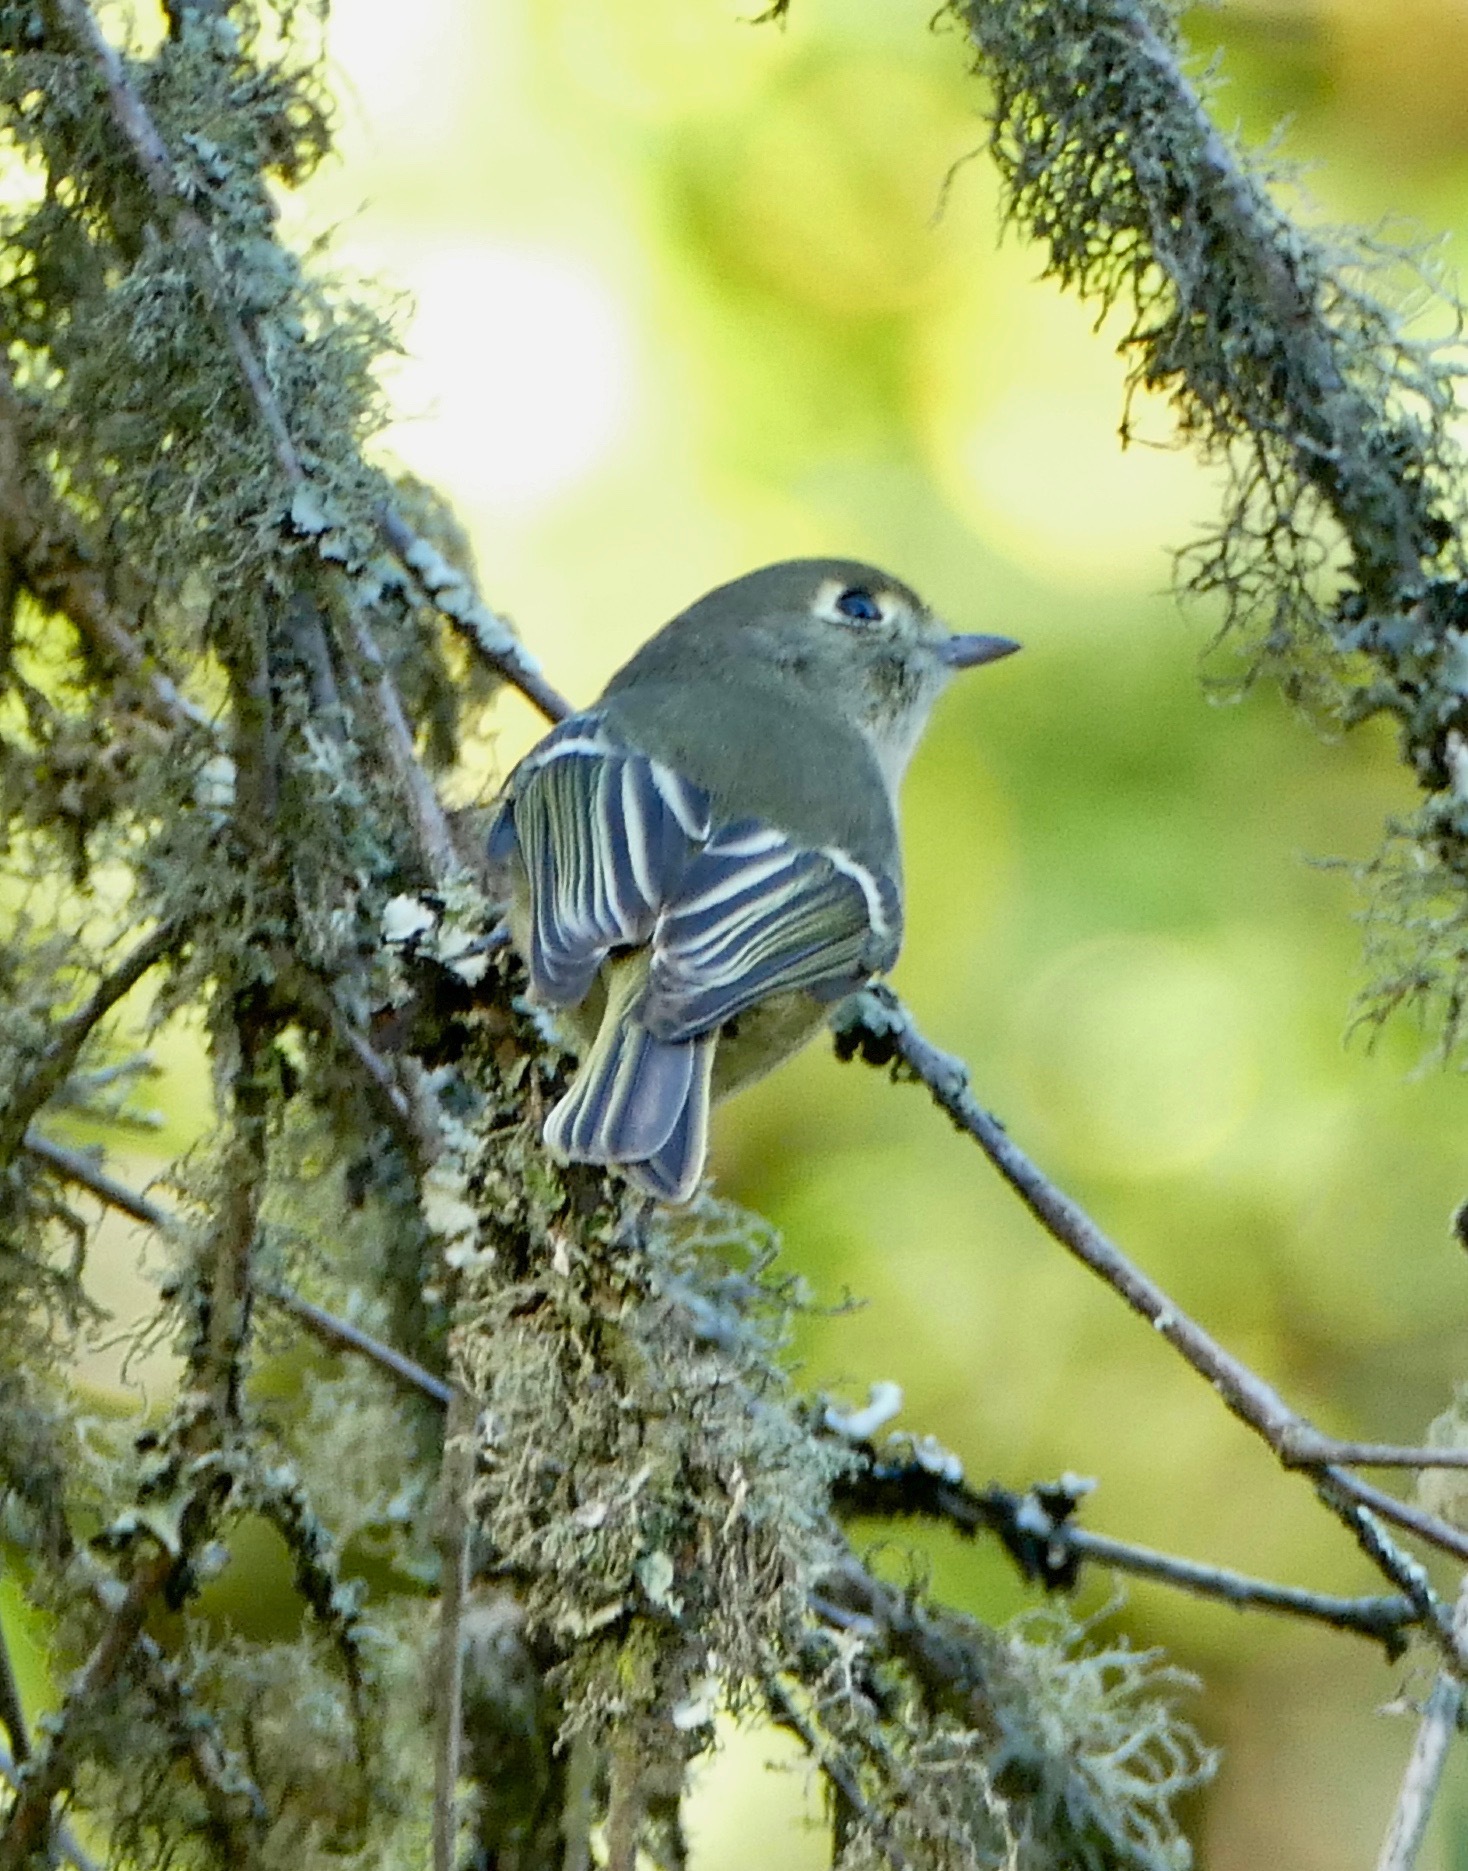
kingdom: Animalia
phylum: Chordata
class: Aves
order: Passeriformes
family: Regulidae
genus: Regulus
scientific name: Regulus calendula
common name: Ruby-crowned kinglet
